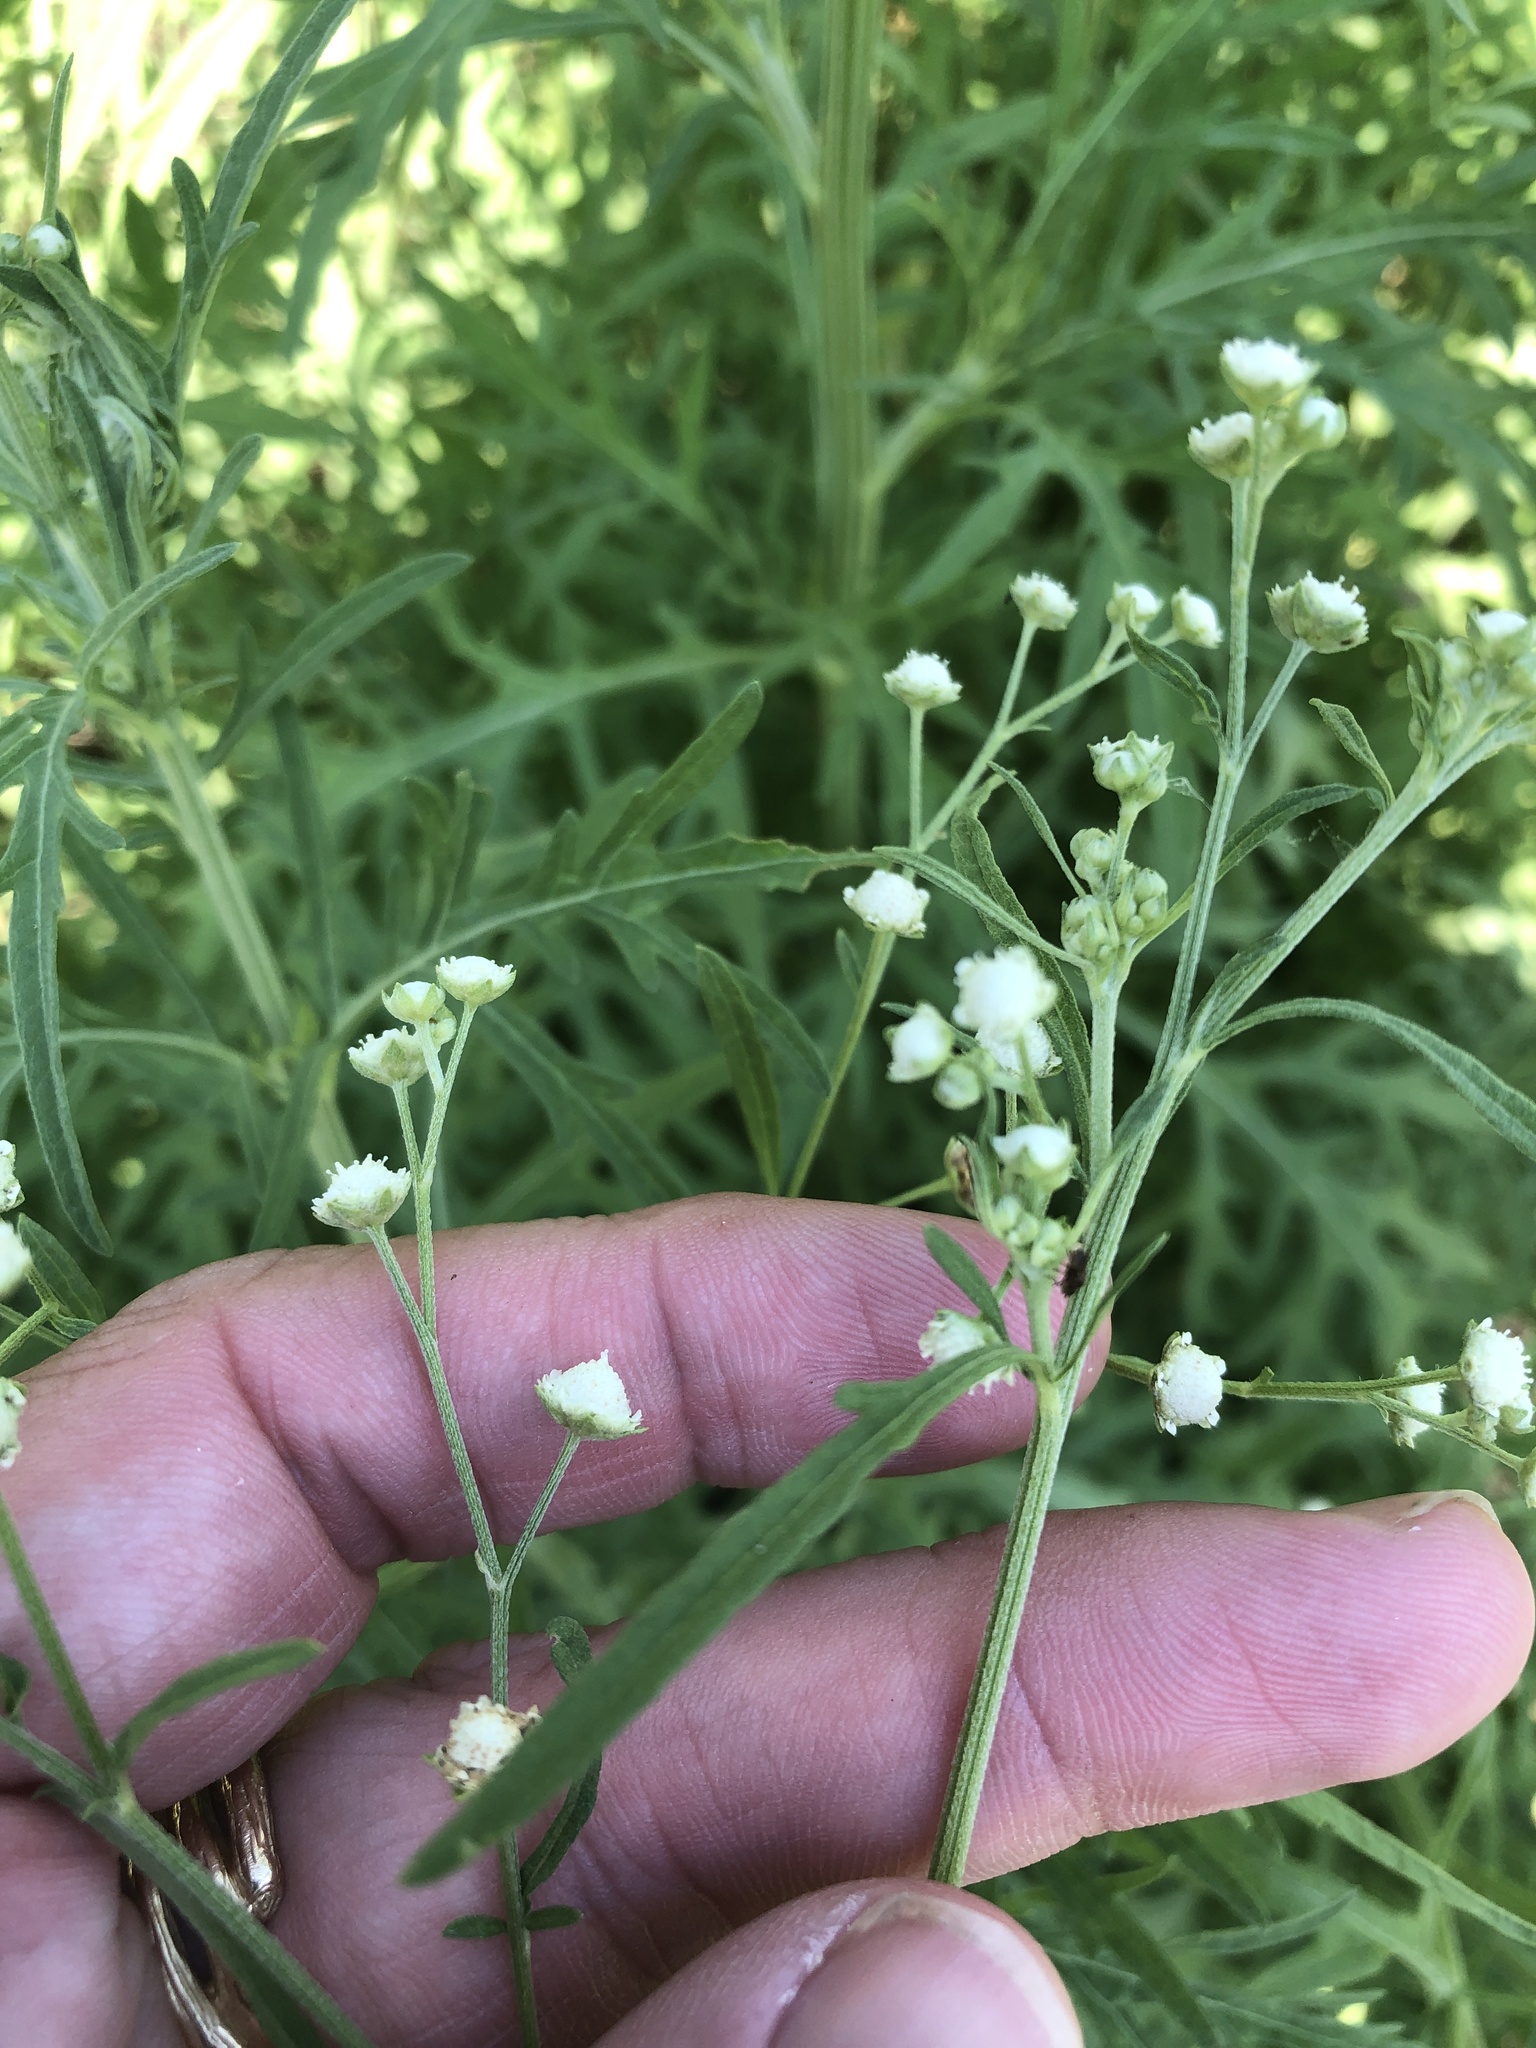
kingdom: Plantae
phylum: Tracheophyta
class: Magnoliopsida
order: Asterales
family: Asteraceae
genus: Parthenium
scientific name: Parthenium hysterophorus
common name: Santa maria feverfew
